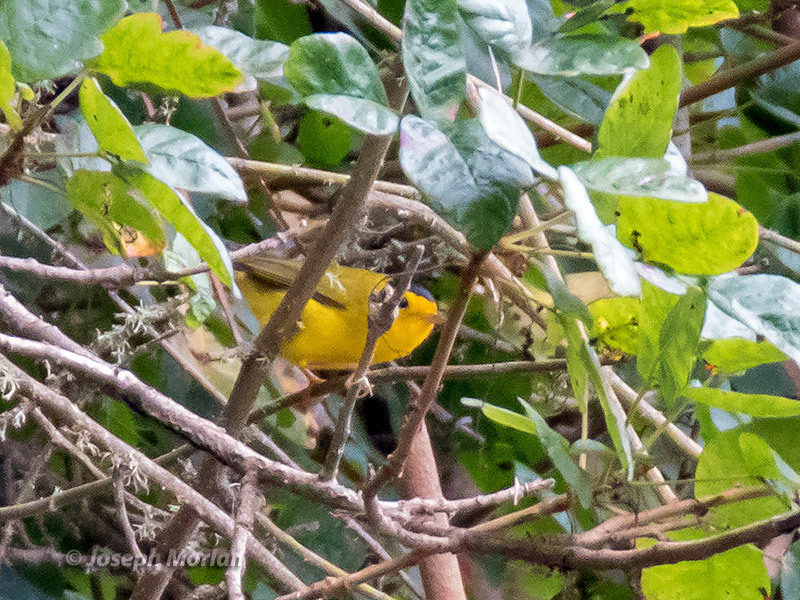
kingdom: Animalia
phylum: Chordata
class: Aves
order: Passeriformes
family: Parulidae
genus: Cardellina
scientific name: Cardellina pusilla
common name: Wilson's warbler
